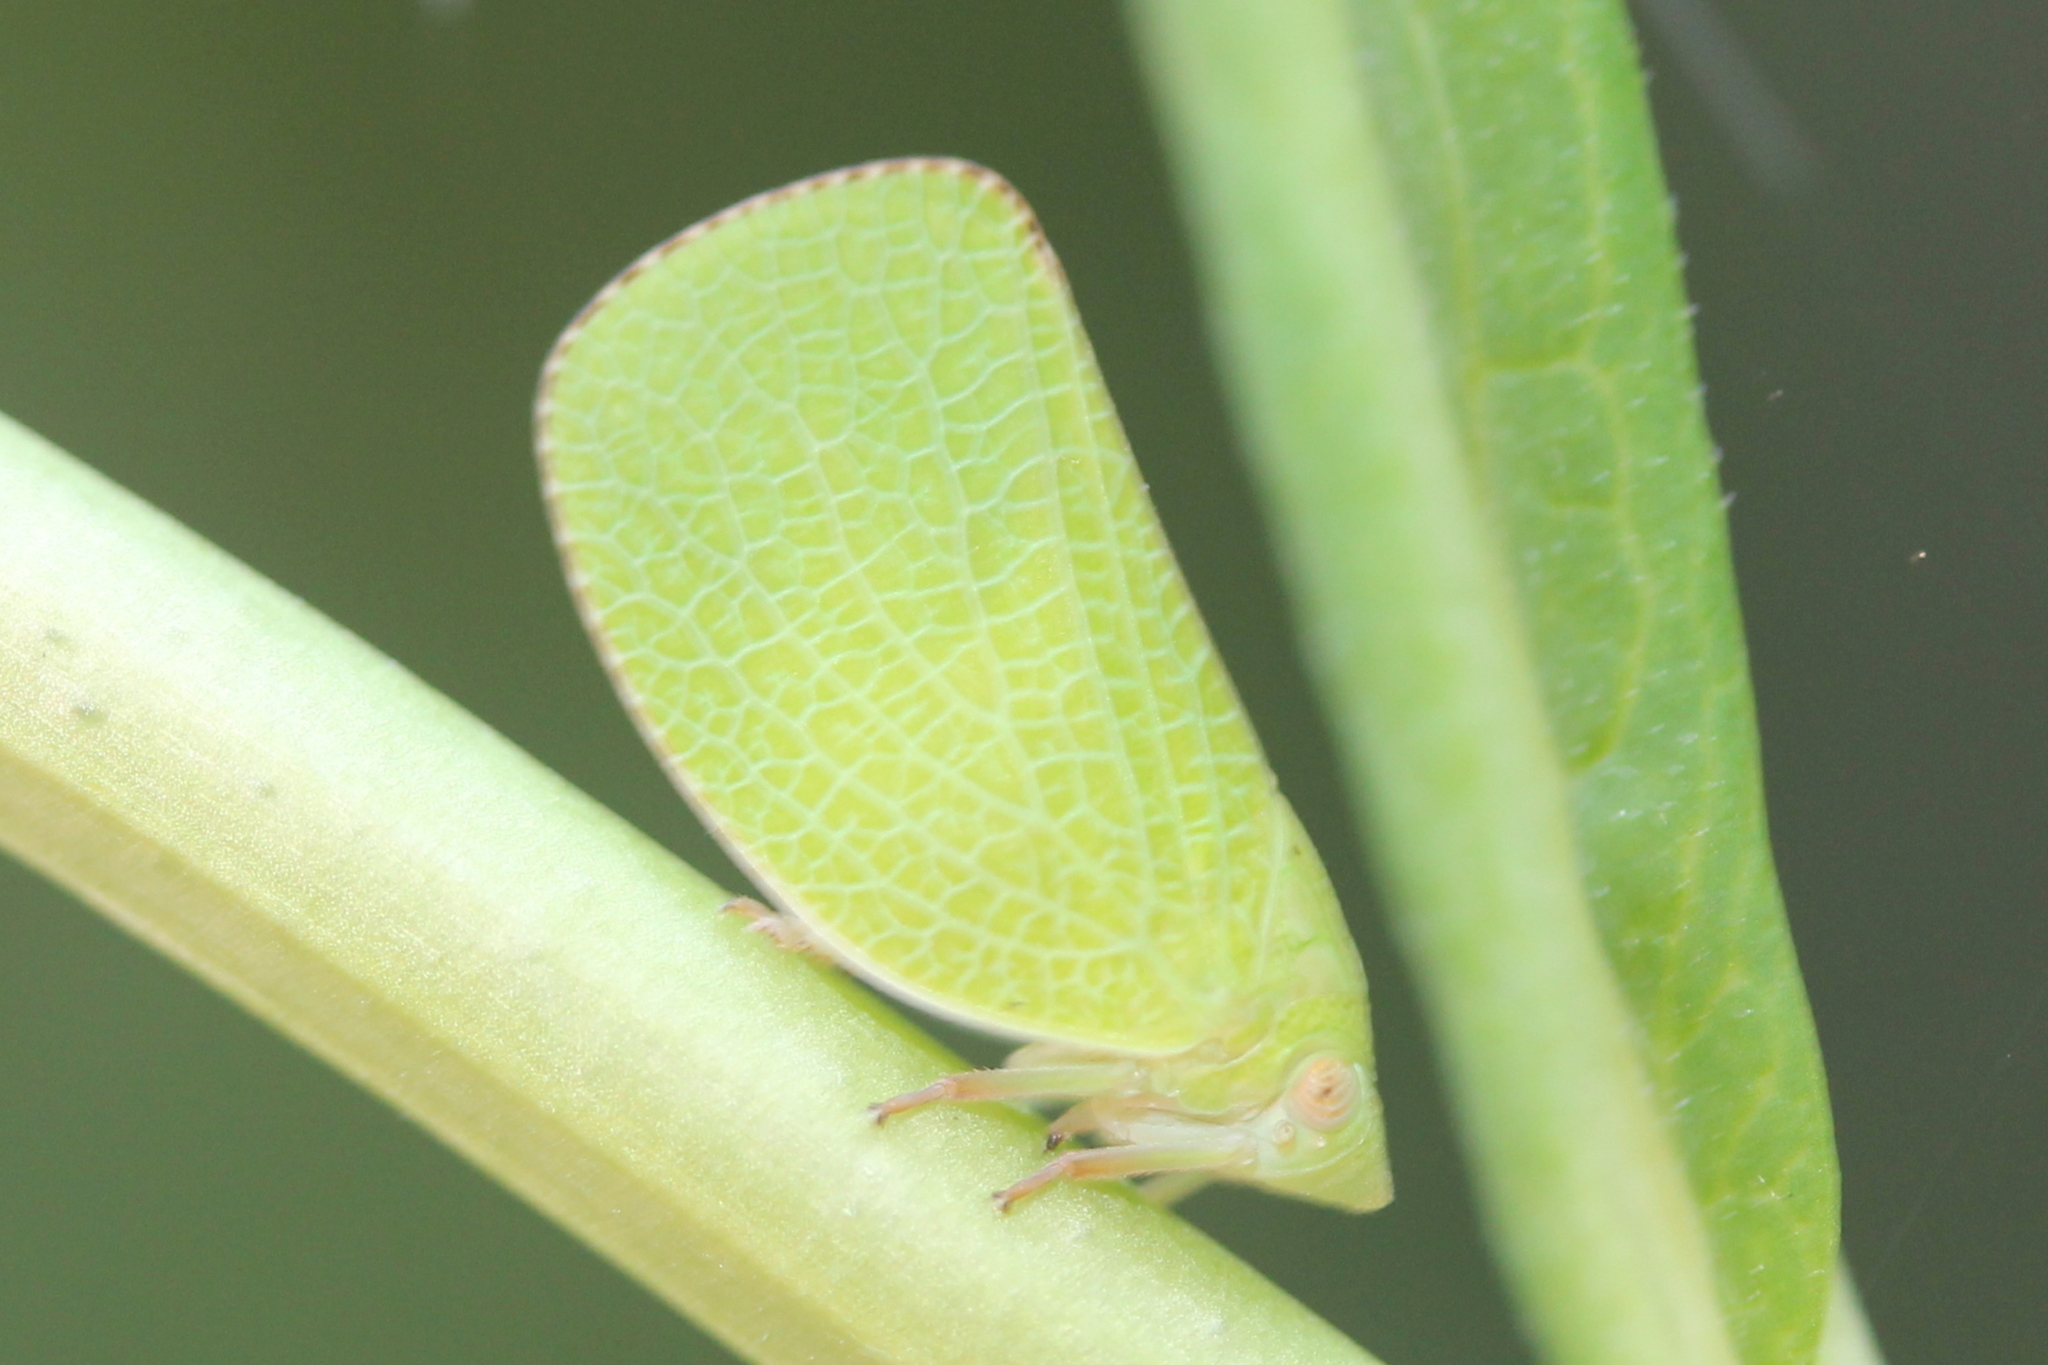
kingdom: Animalia
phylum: Arthropoda
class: Insecta
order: Hemiptera
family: Acanaloniidae
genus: Acanalonia
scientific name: Acanalonia conica
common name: Green cone-headed planthopper
